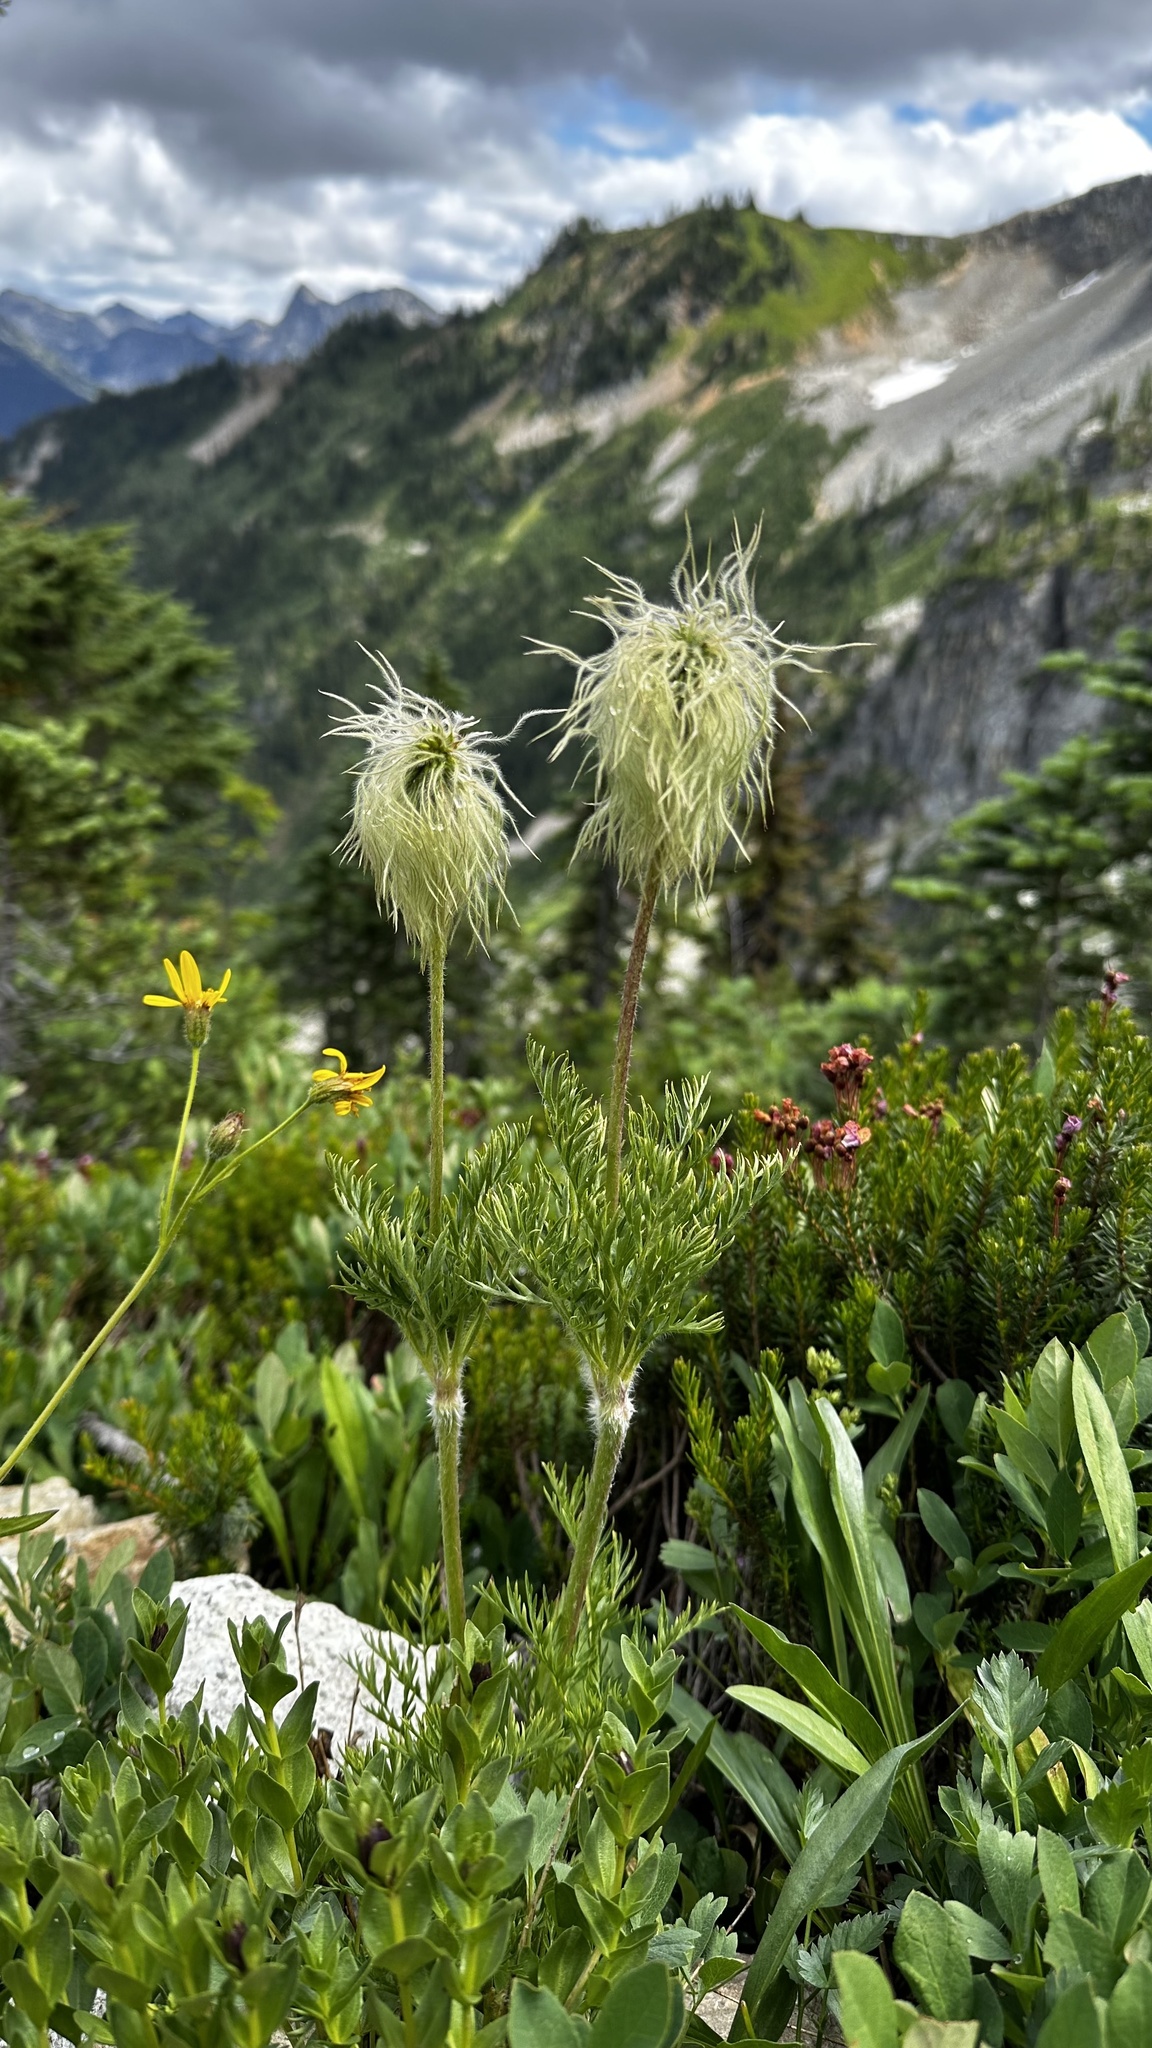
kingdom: Plantae
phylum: Tracheophyta
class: Magnoliopsida
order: Ranunculales
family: Ranunculaceae
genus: Pulsatilla
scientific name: Pulsatilla occidentalis
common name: Mountain pasqueflower
